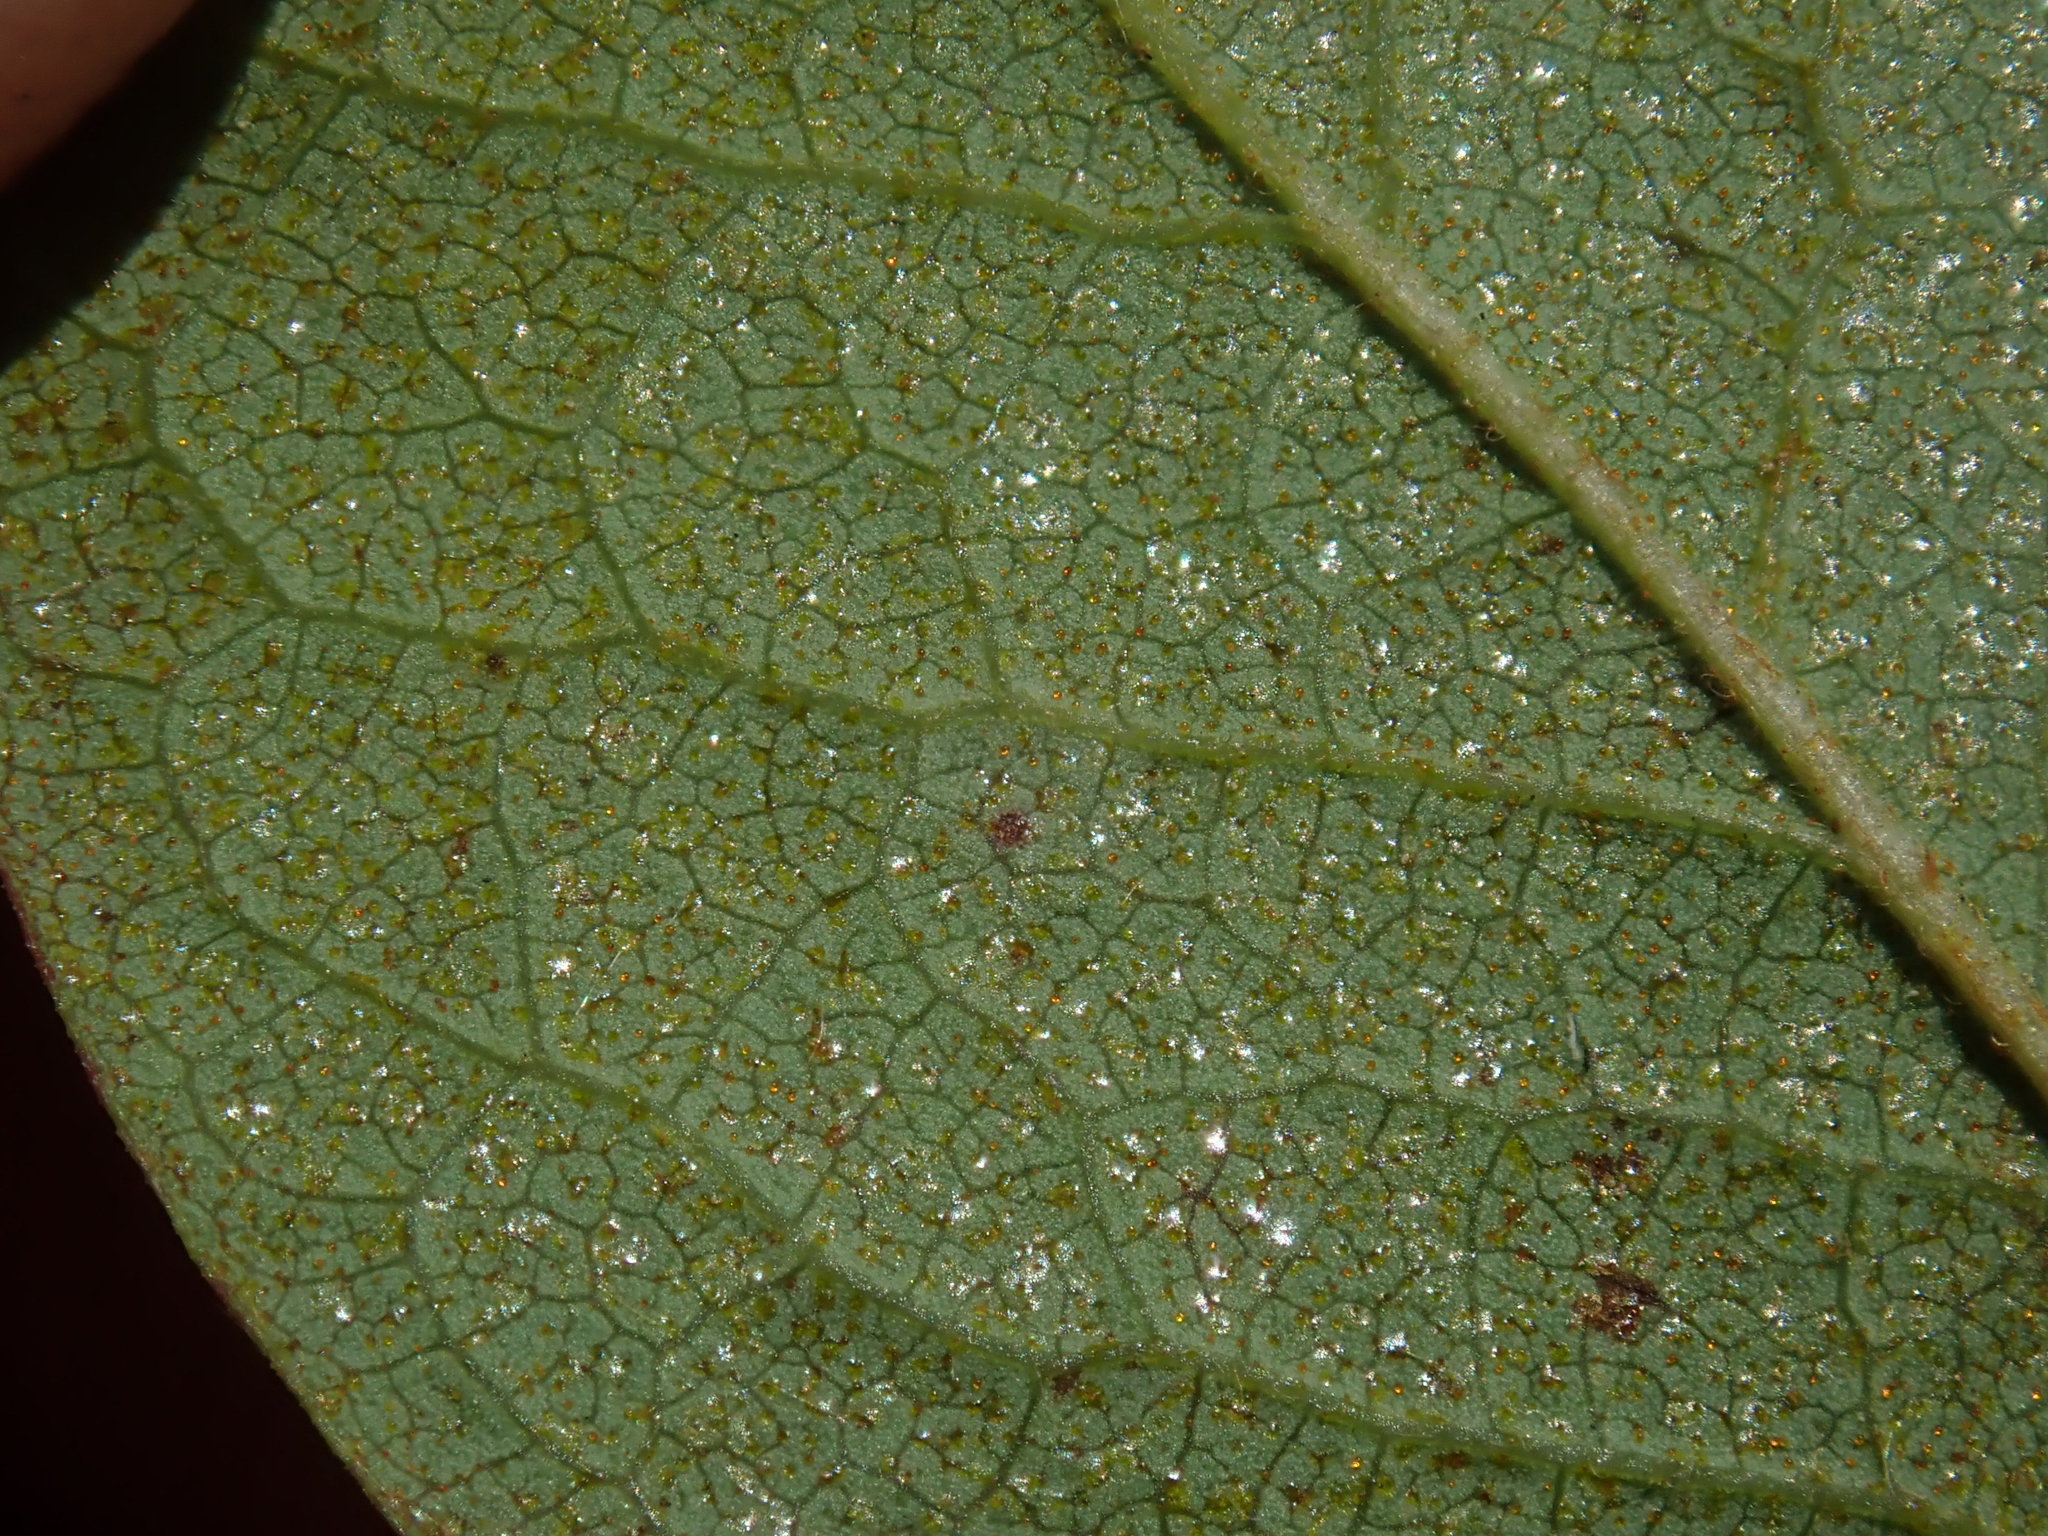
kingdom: Plantae
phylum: Tracheophyta
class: Magnoliopsida
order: Ericales
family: Ericaceae
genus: Gaylussacia
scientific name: Gaylussacia baccata
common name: Black huckleberry
